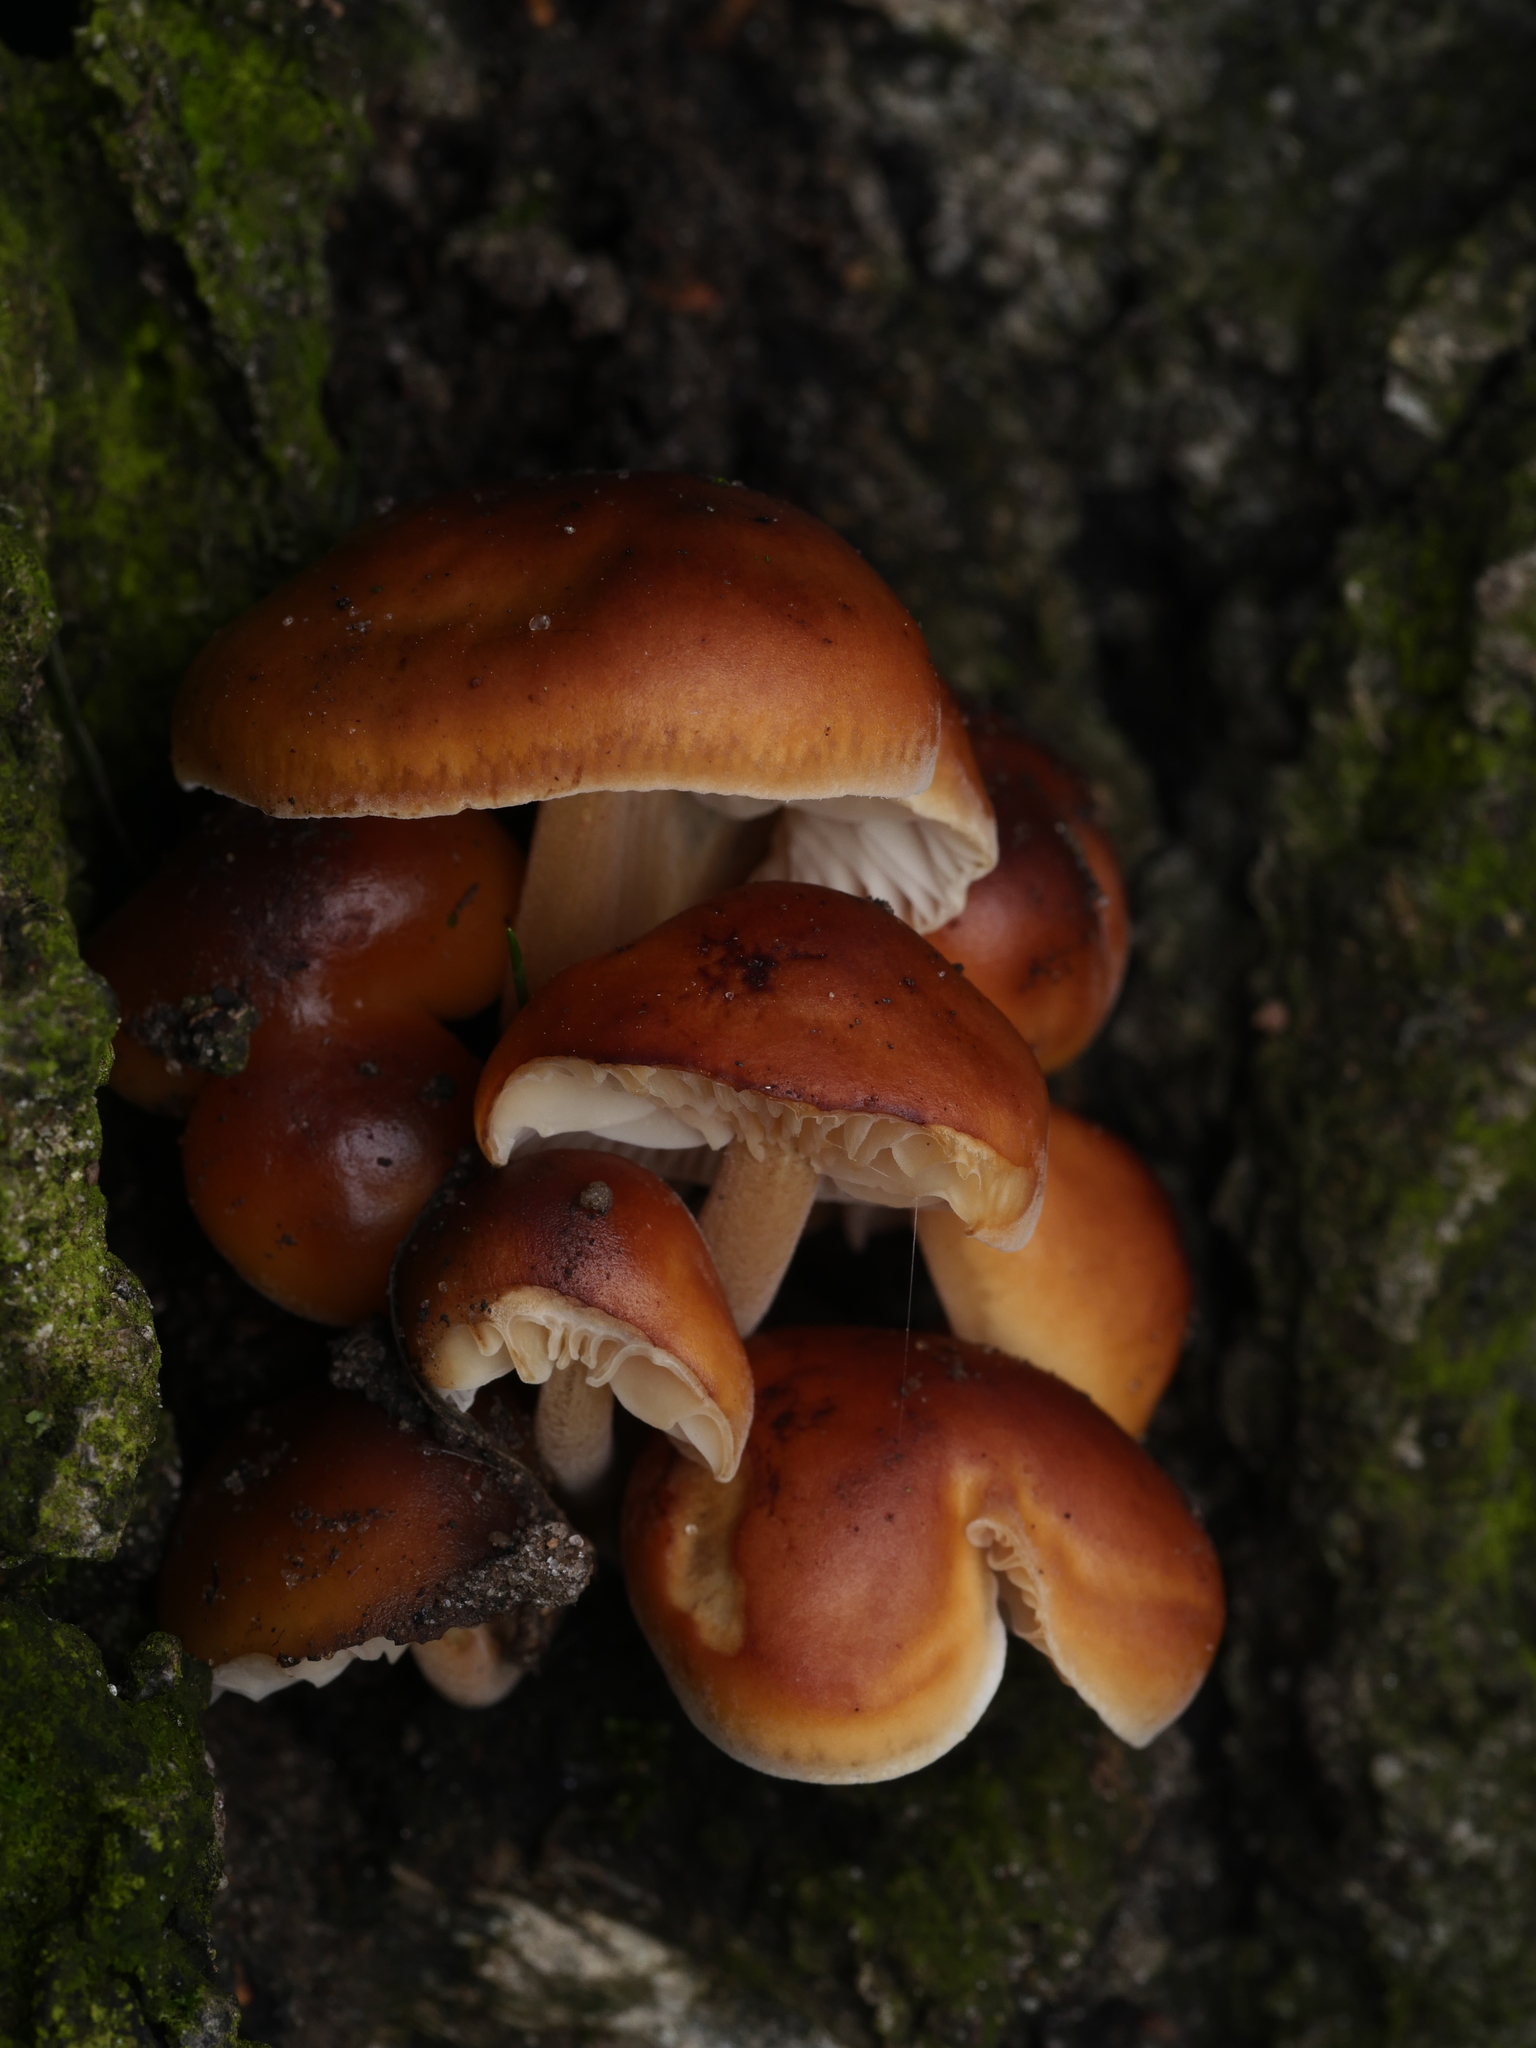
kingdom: Fungi
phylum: Basidiomycota
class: Agaricomycetes
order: Agaricales
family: Physalacriaceae
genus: Flammulina
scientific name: Flammulina
